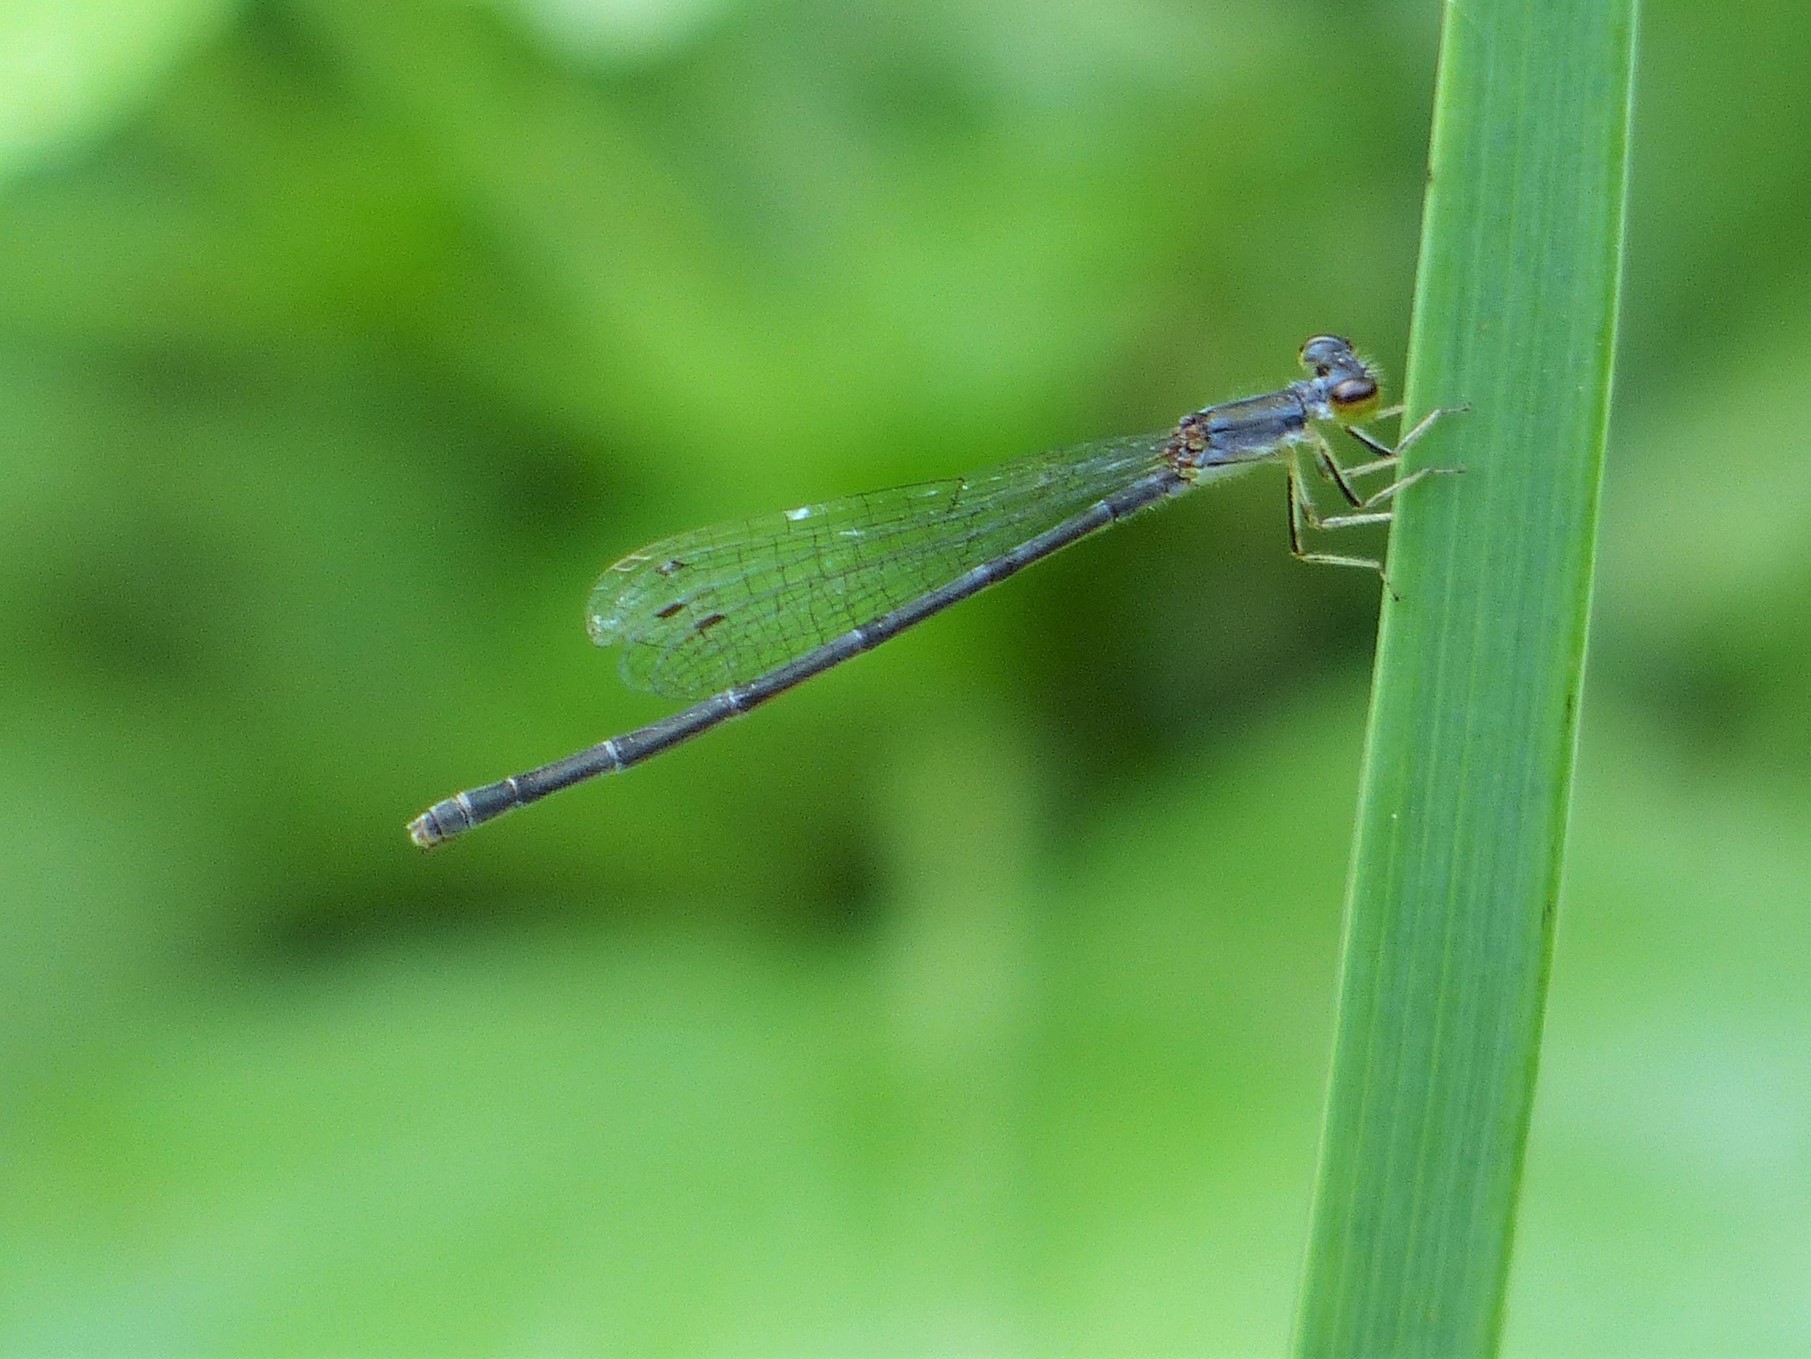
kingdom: Animalia
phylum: Arthropoda
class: Insecta
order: Odonata
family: Coenagrionidae
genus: Ischnura
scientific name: Ischnura posita
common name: Fragile forktail
